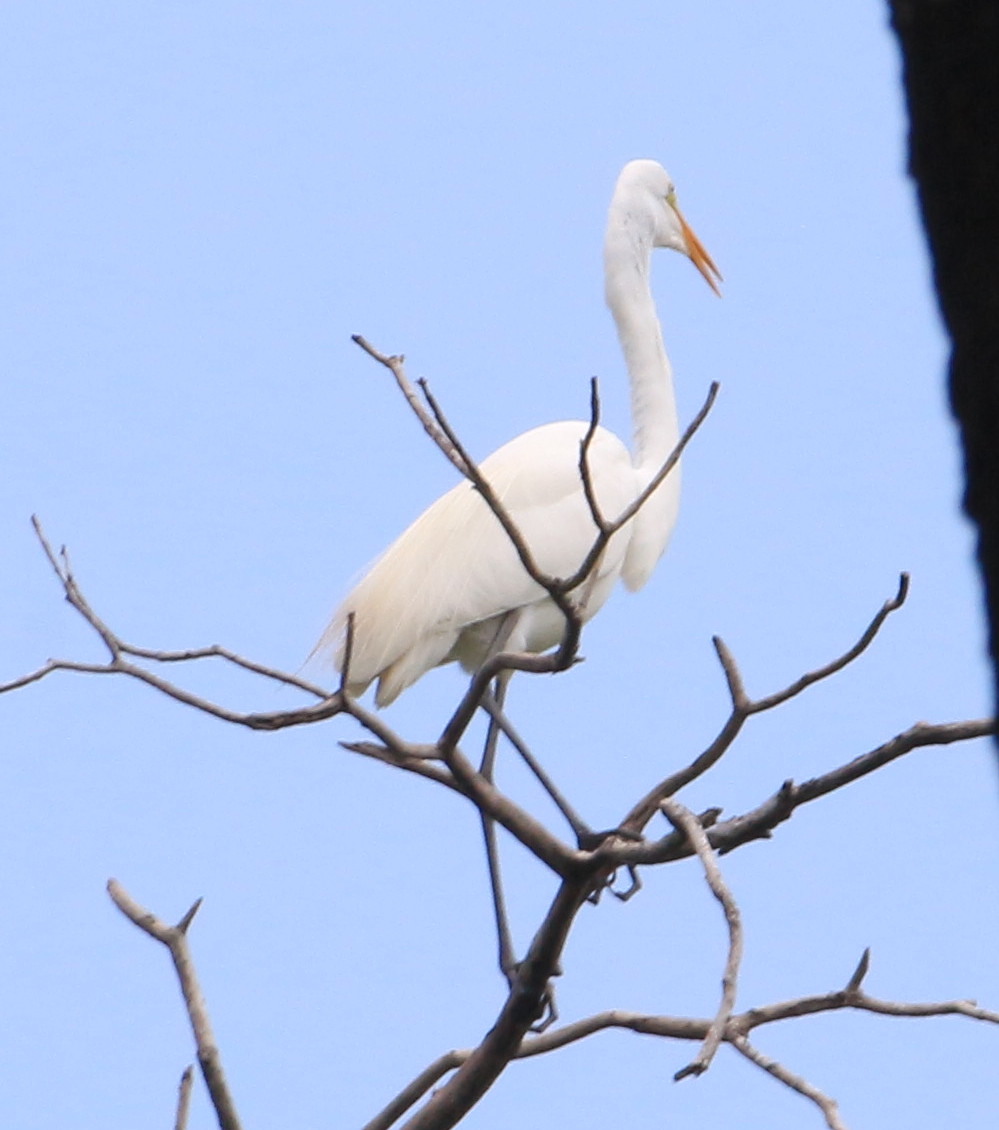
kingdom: Animalia
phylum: Chordata
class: Aves
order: Pelecaniformes
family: Ardeidae
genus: Ardea
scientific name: Ardea alba
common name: Great egret
